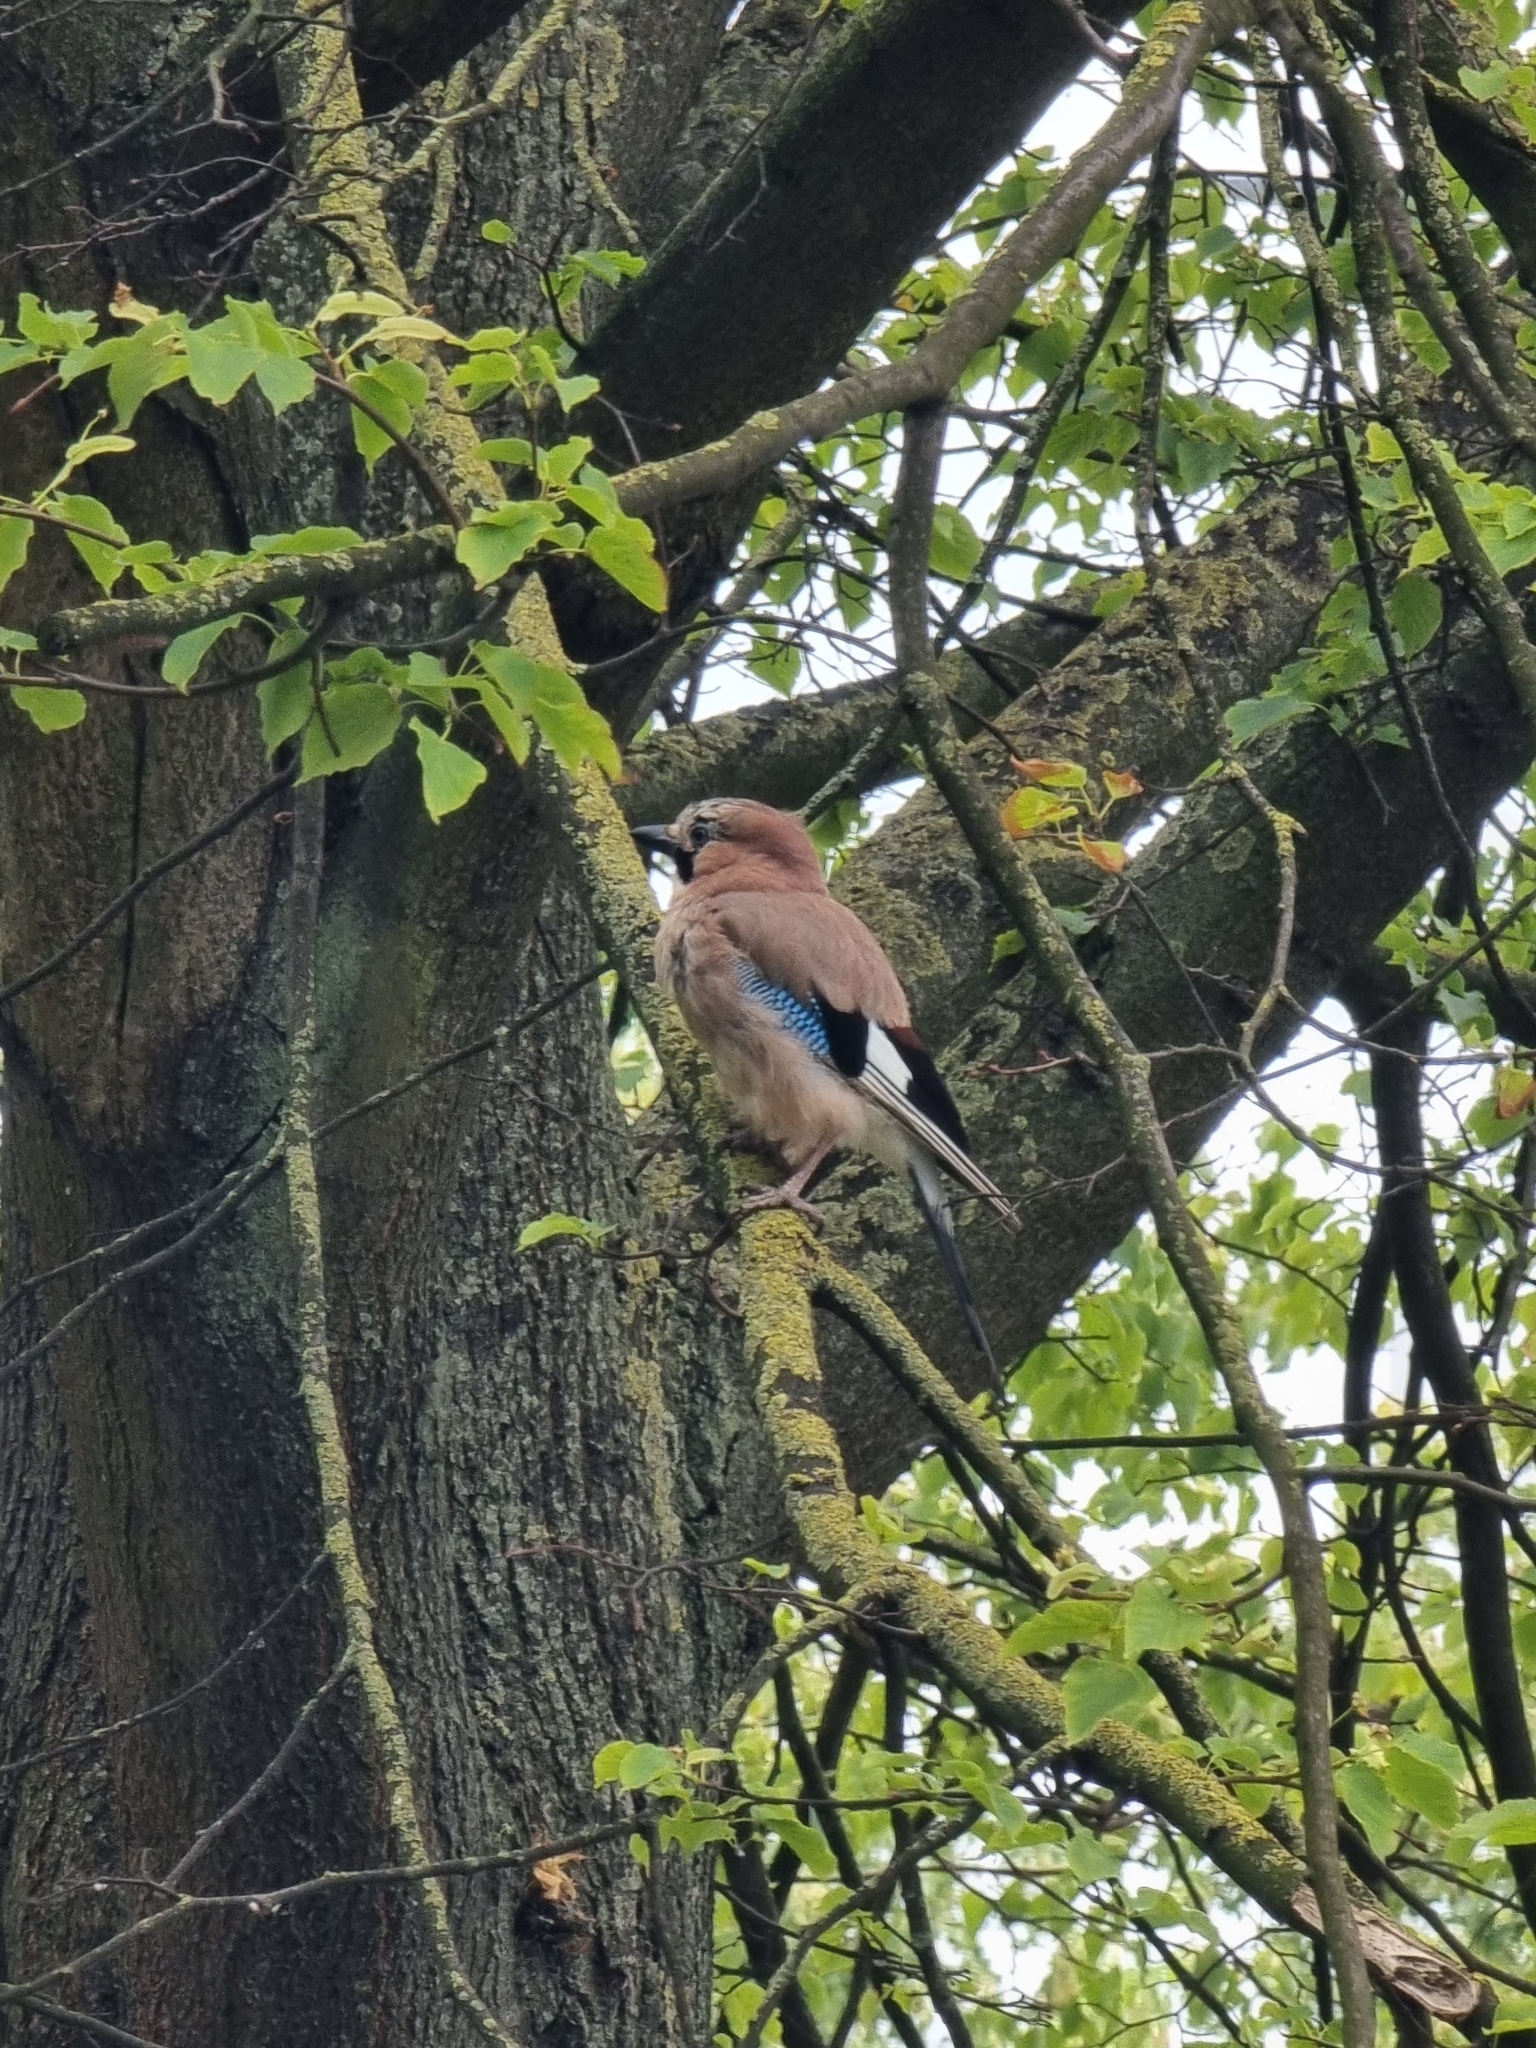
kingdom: Animalia
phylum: Chordata
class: Aves
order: Passeriformes
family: Corvidae
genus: Garrulus
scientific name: Garrulus glandarius
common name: Eurasian jay
